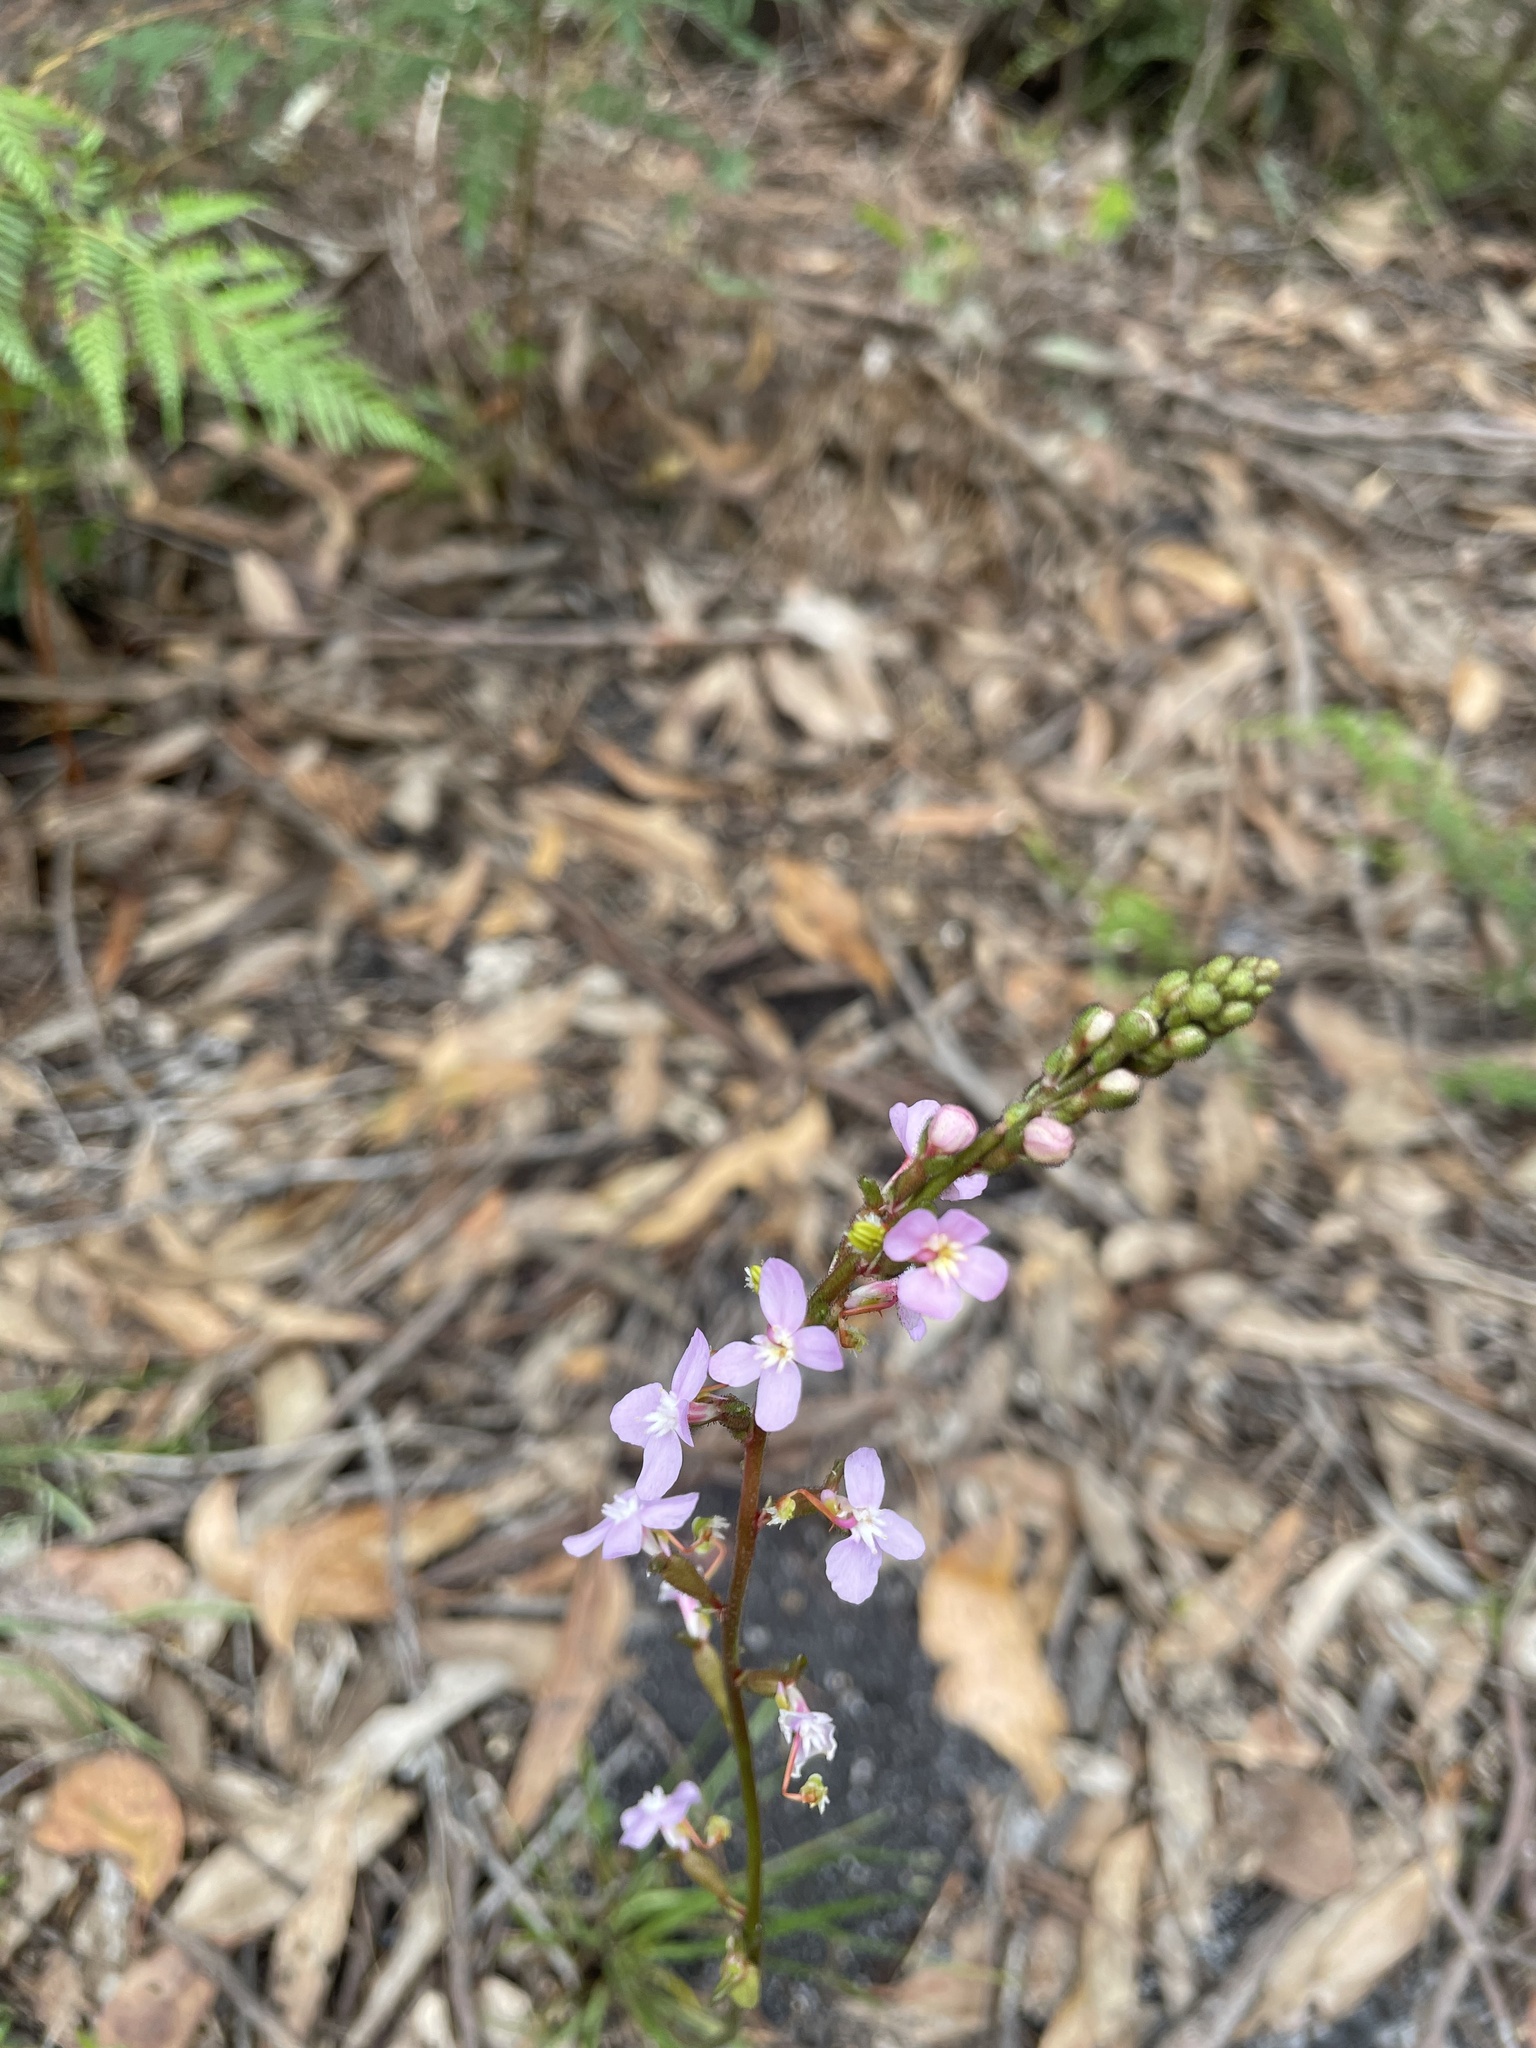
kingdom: Plantae
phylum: Tracheophyta
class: Magnoliopsida
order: Asterales
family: Stylidiaceae
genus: Stylidium
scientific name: Stylidium graminifolium
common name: Grass triggerplant
